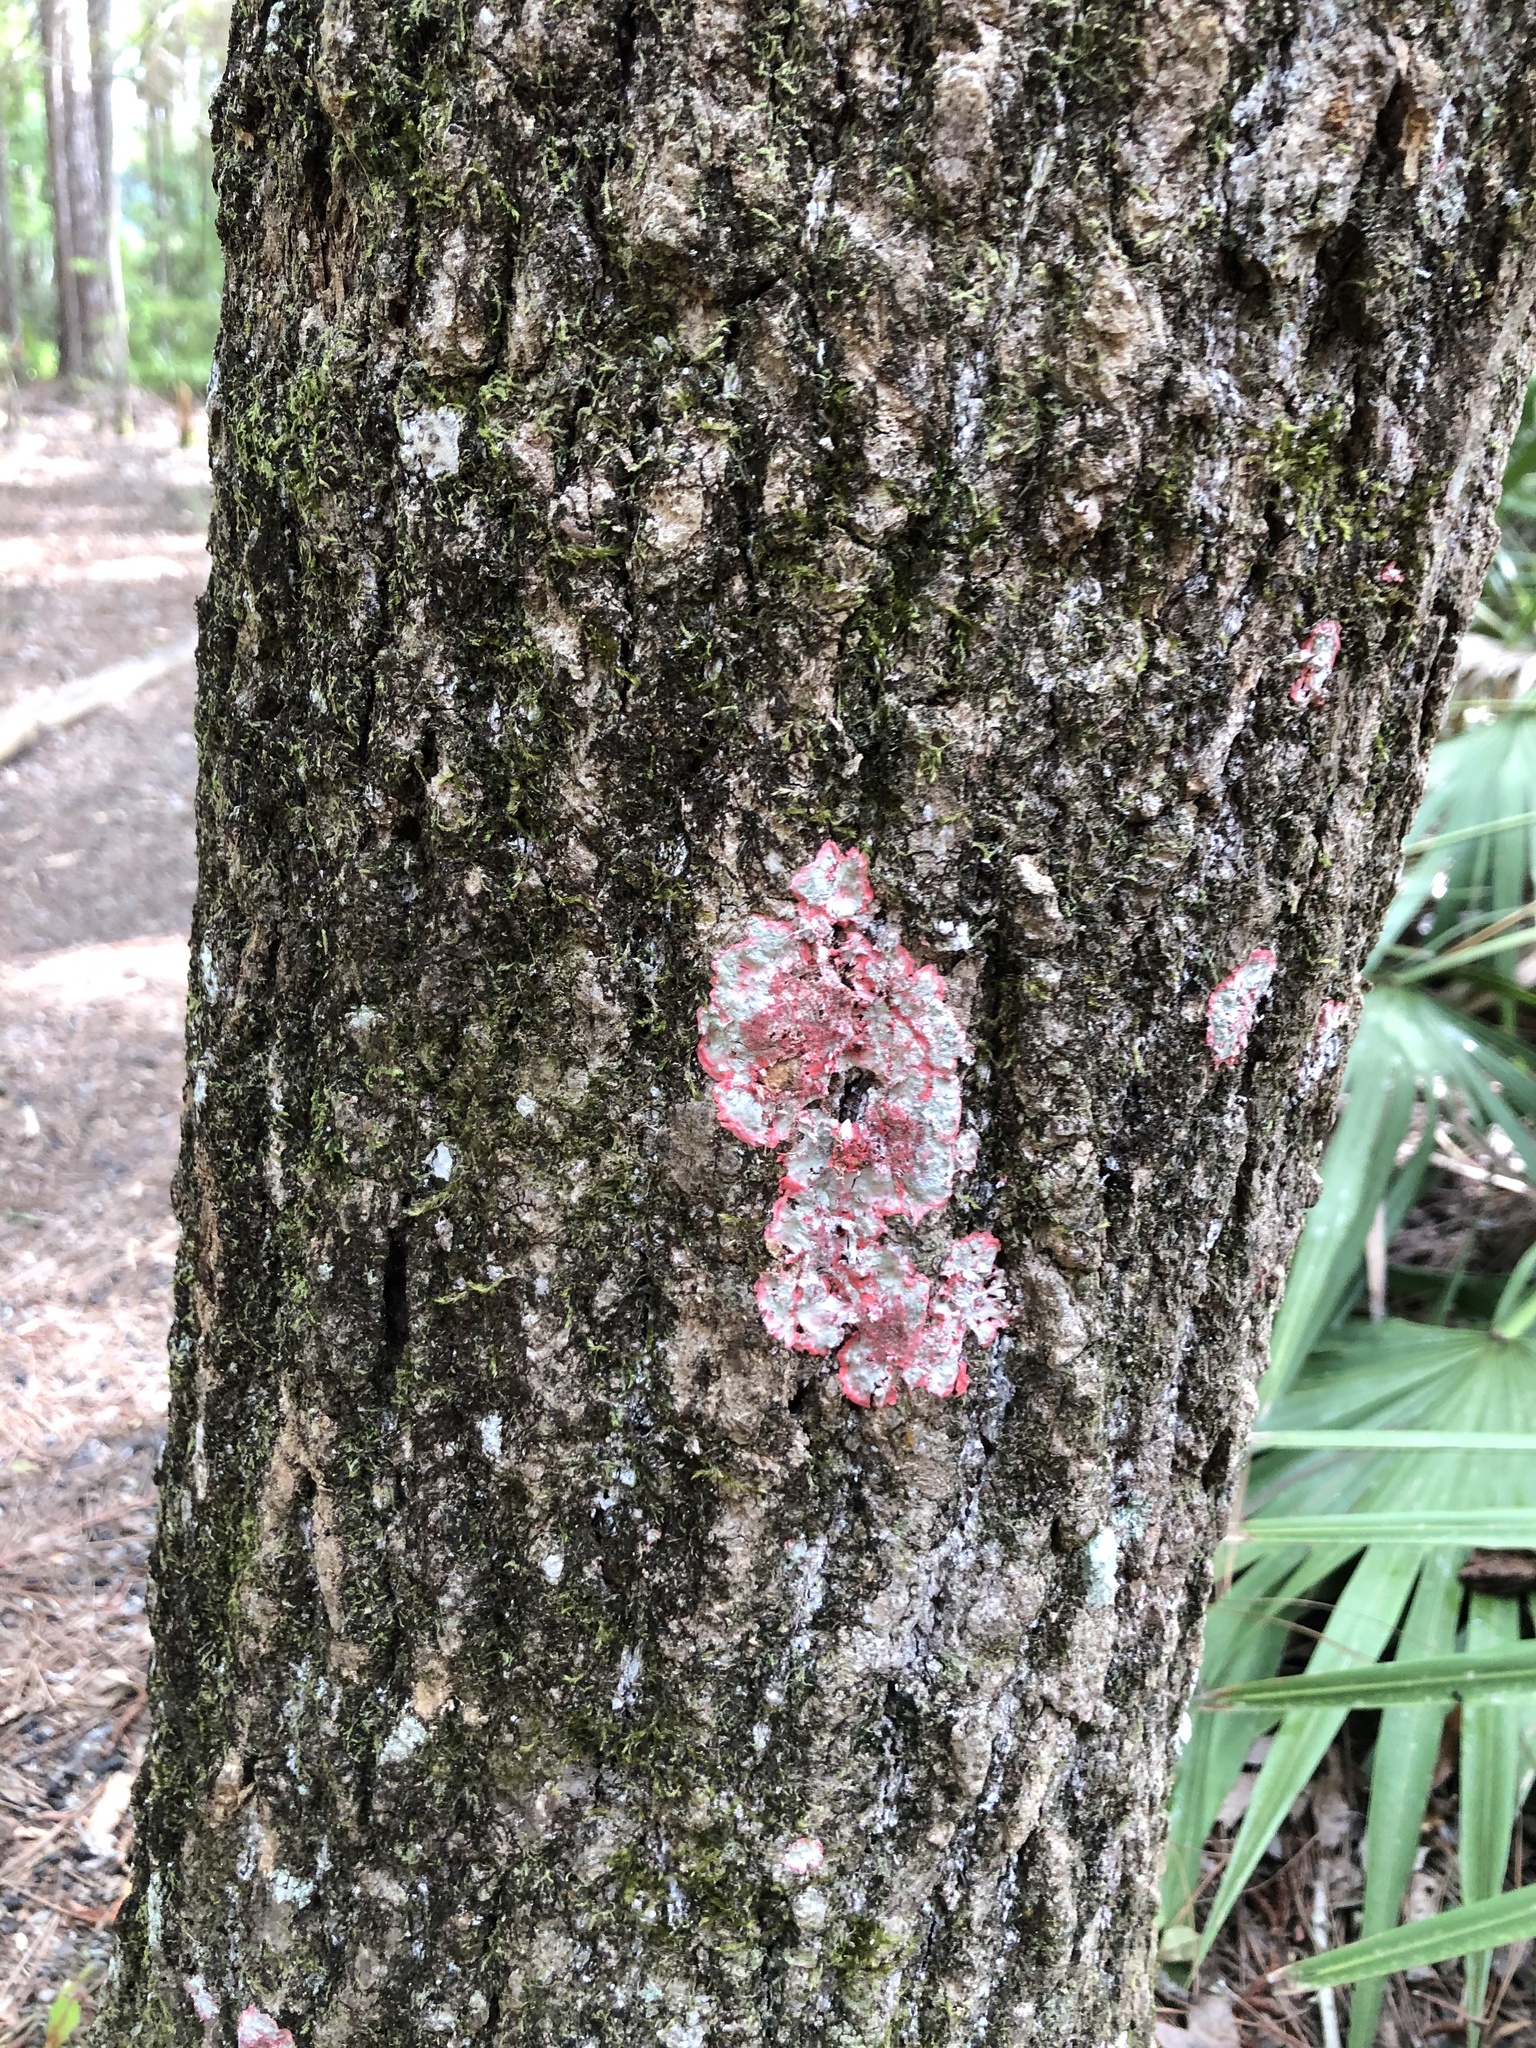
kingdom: Fungi
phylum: Ascomycota
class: Arthoniomycetes
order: Arthoniales
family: Arthoniaceae
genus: Herpothallon
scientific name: Herpothallon rubrocinctum
